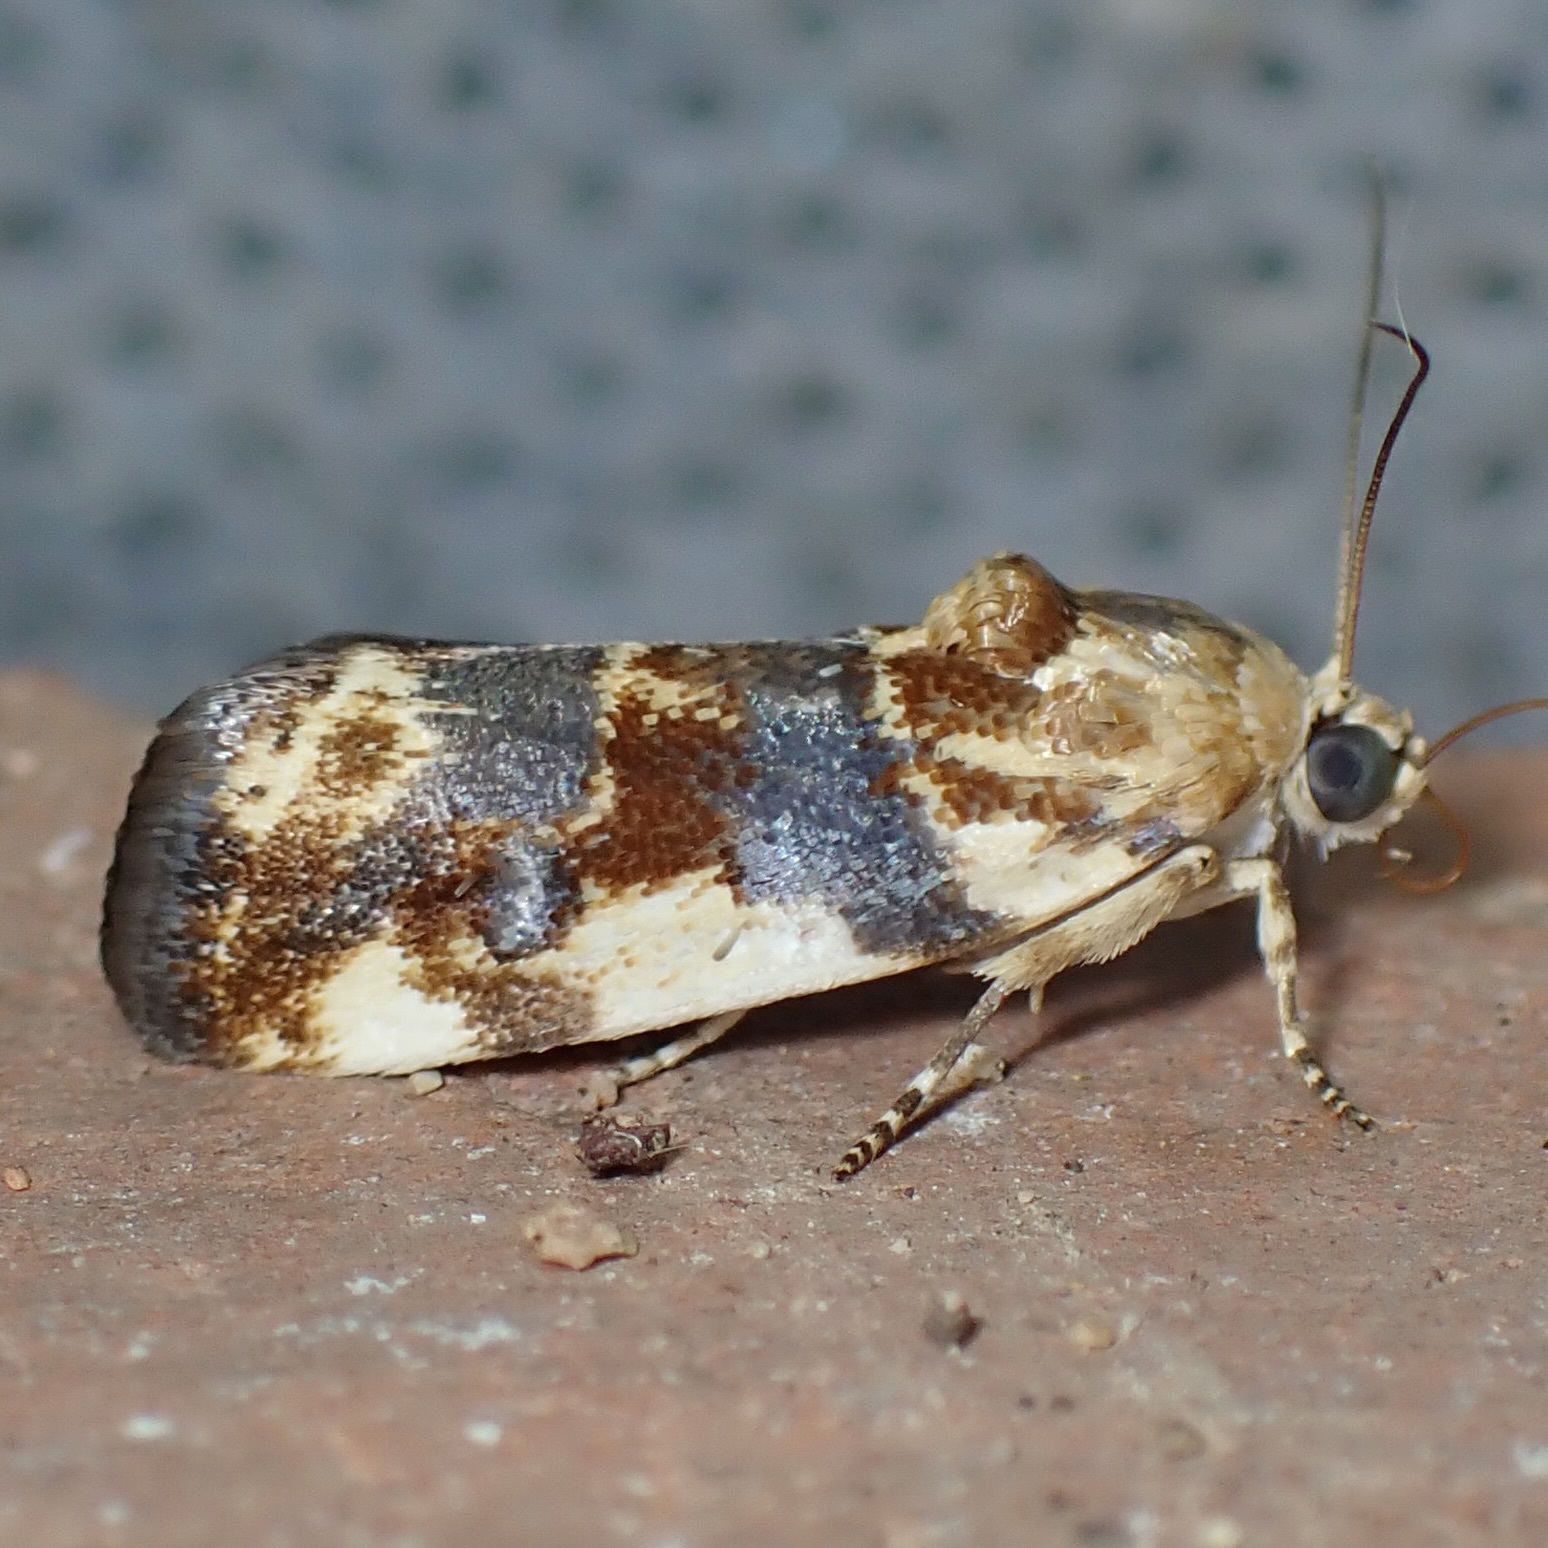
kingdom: Animalia
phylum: Arthropoda
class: Insecta
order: Lepidoptera
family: Noctuidae
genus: Acontia
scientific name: Acontia obatra
